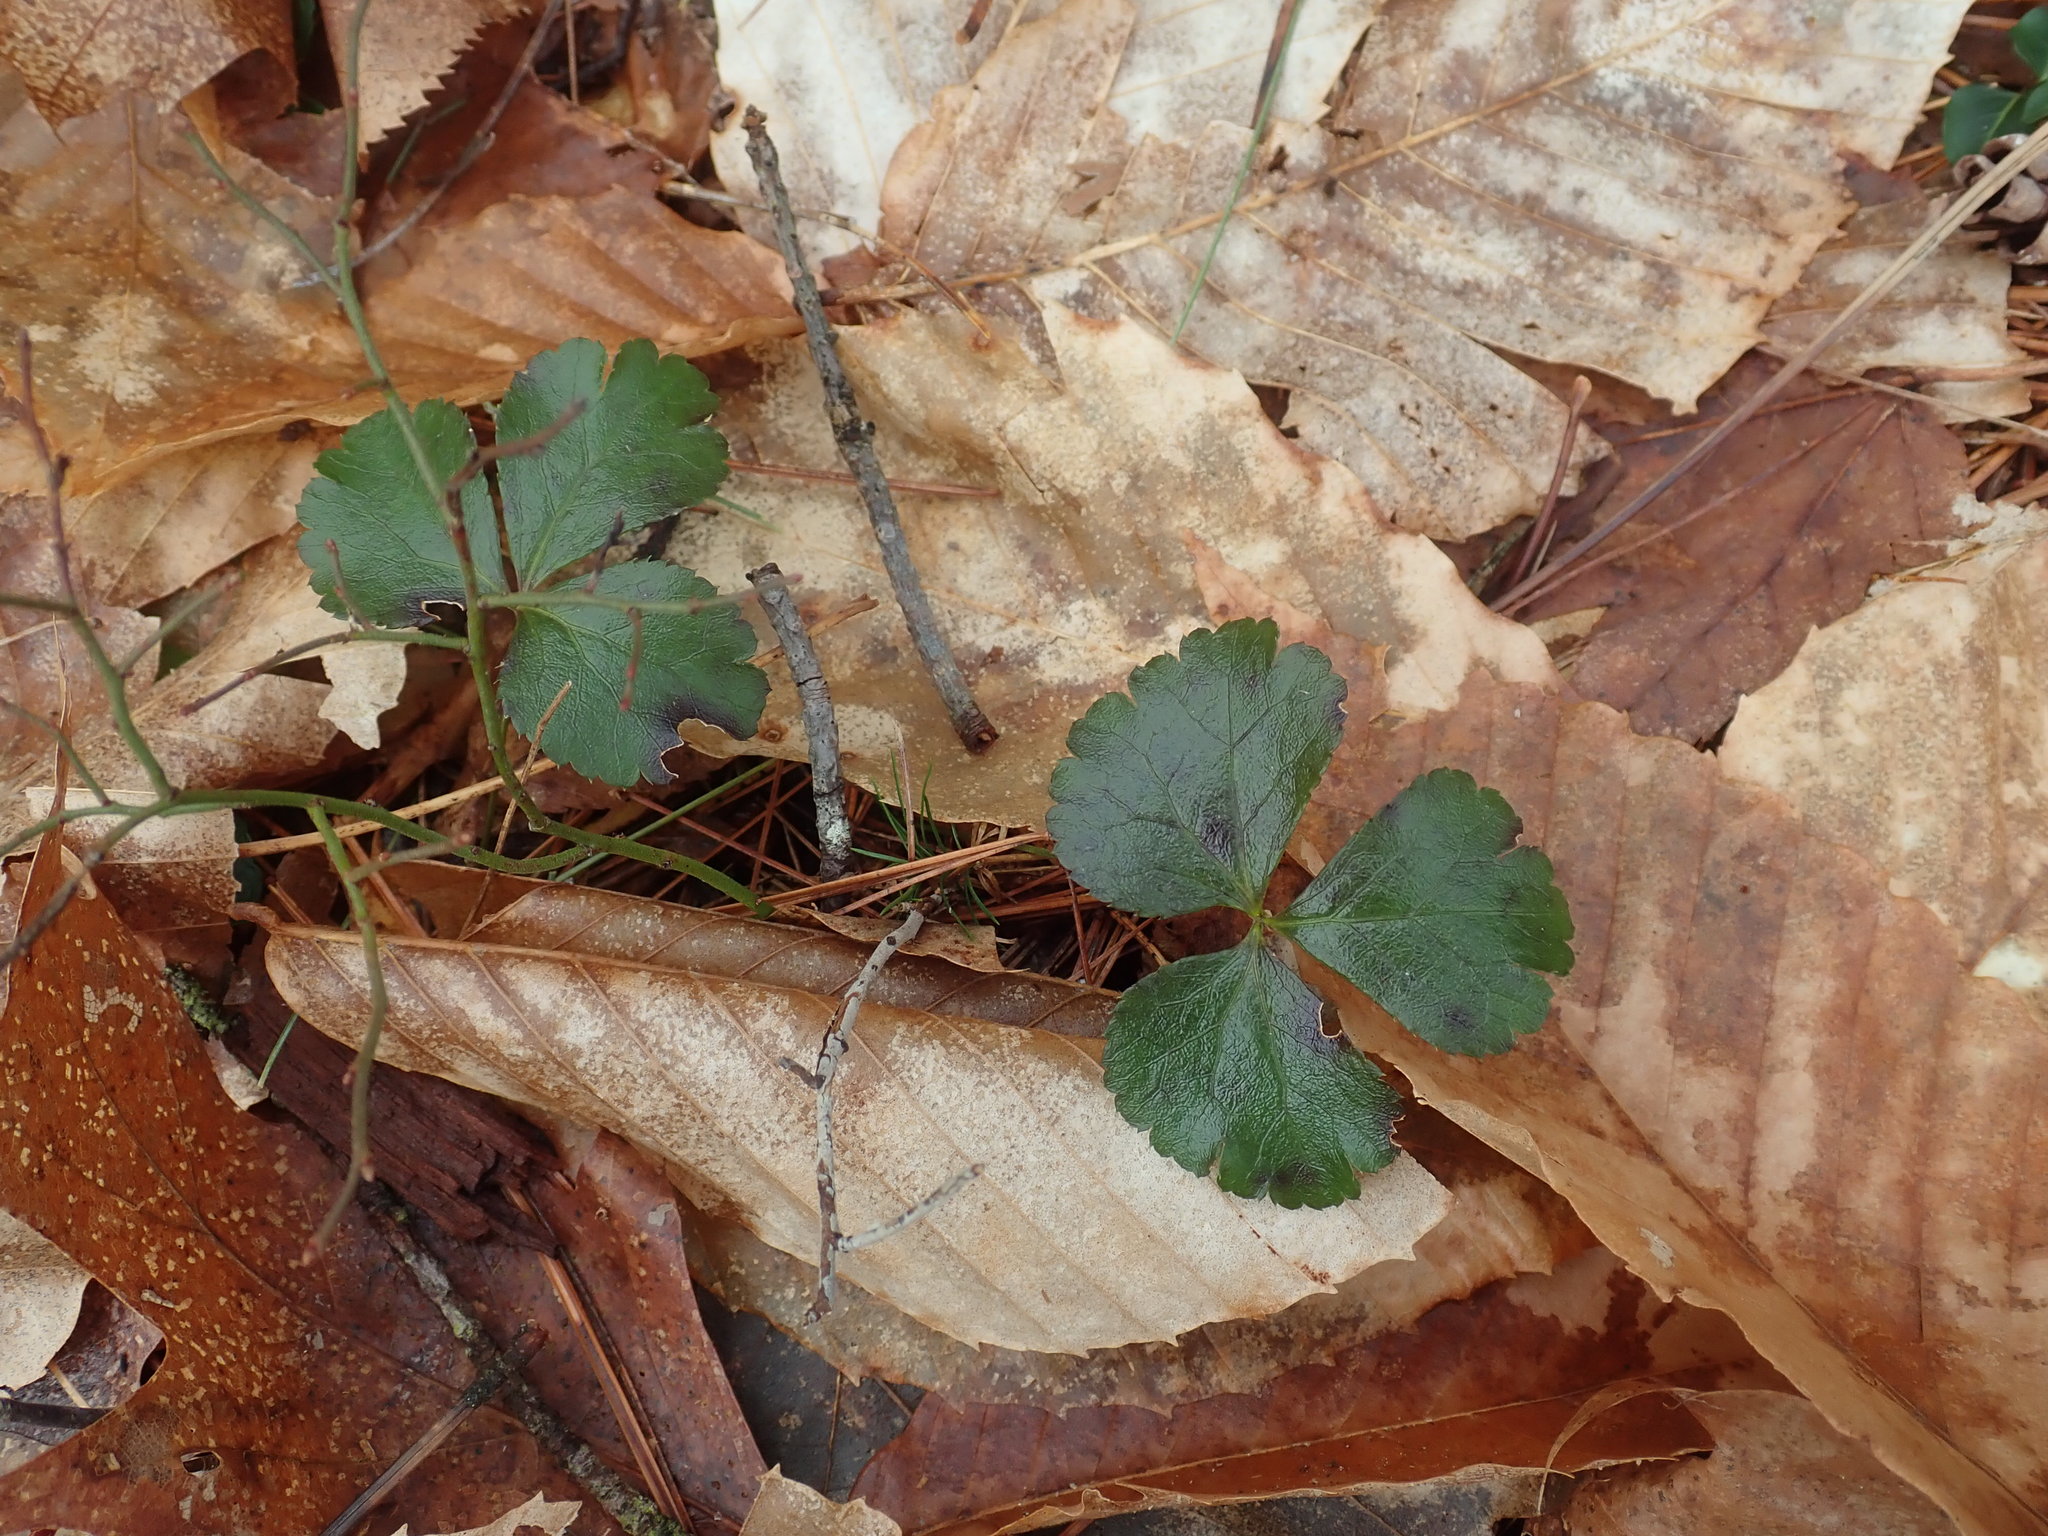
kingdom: Plantae
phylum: Tracheophyta
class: Magnoliopsida
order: Ranunculales
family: Ranunculaceae
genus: Coptis
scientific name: Coptis trifolia
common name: Canker-root
